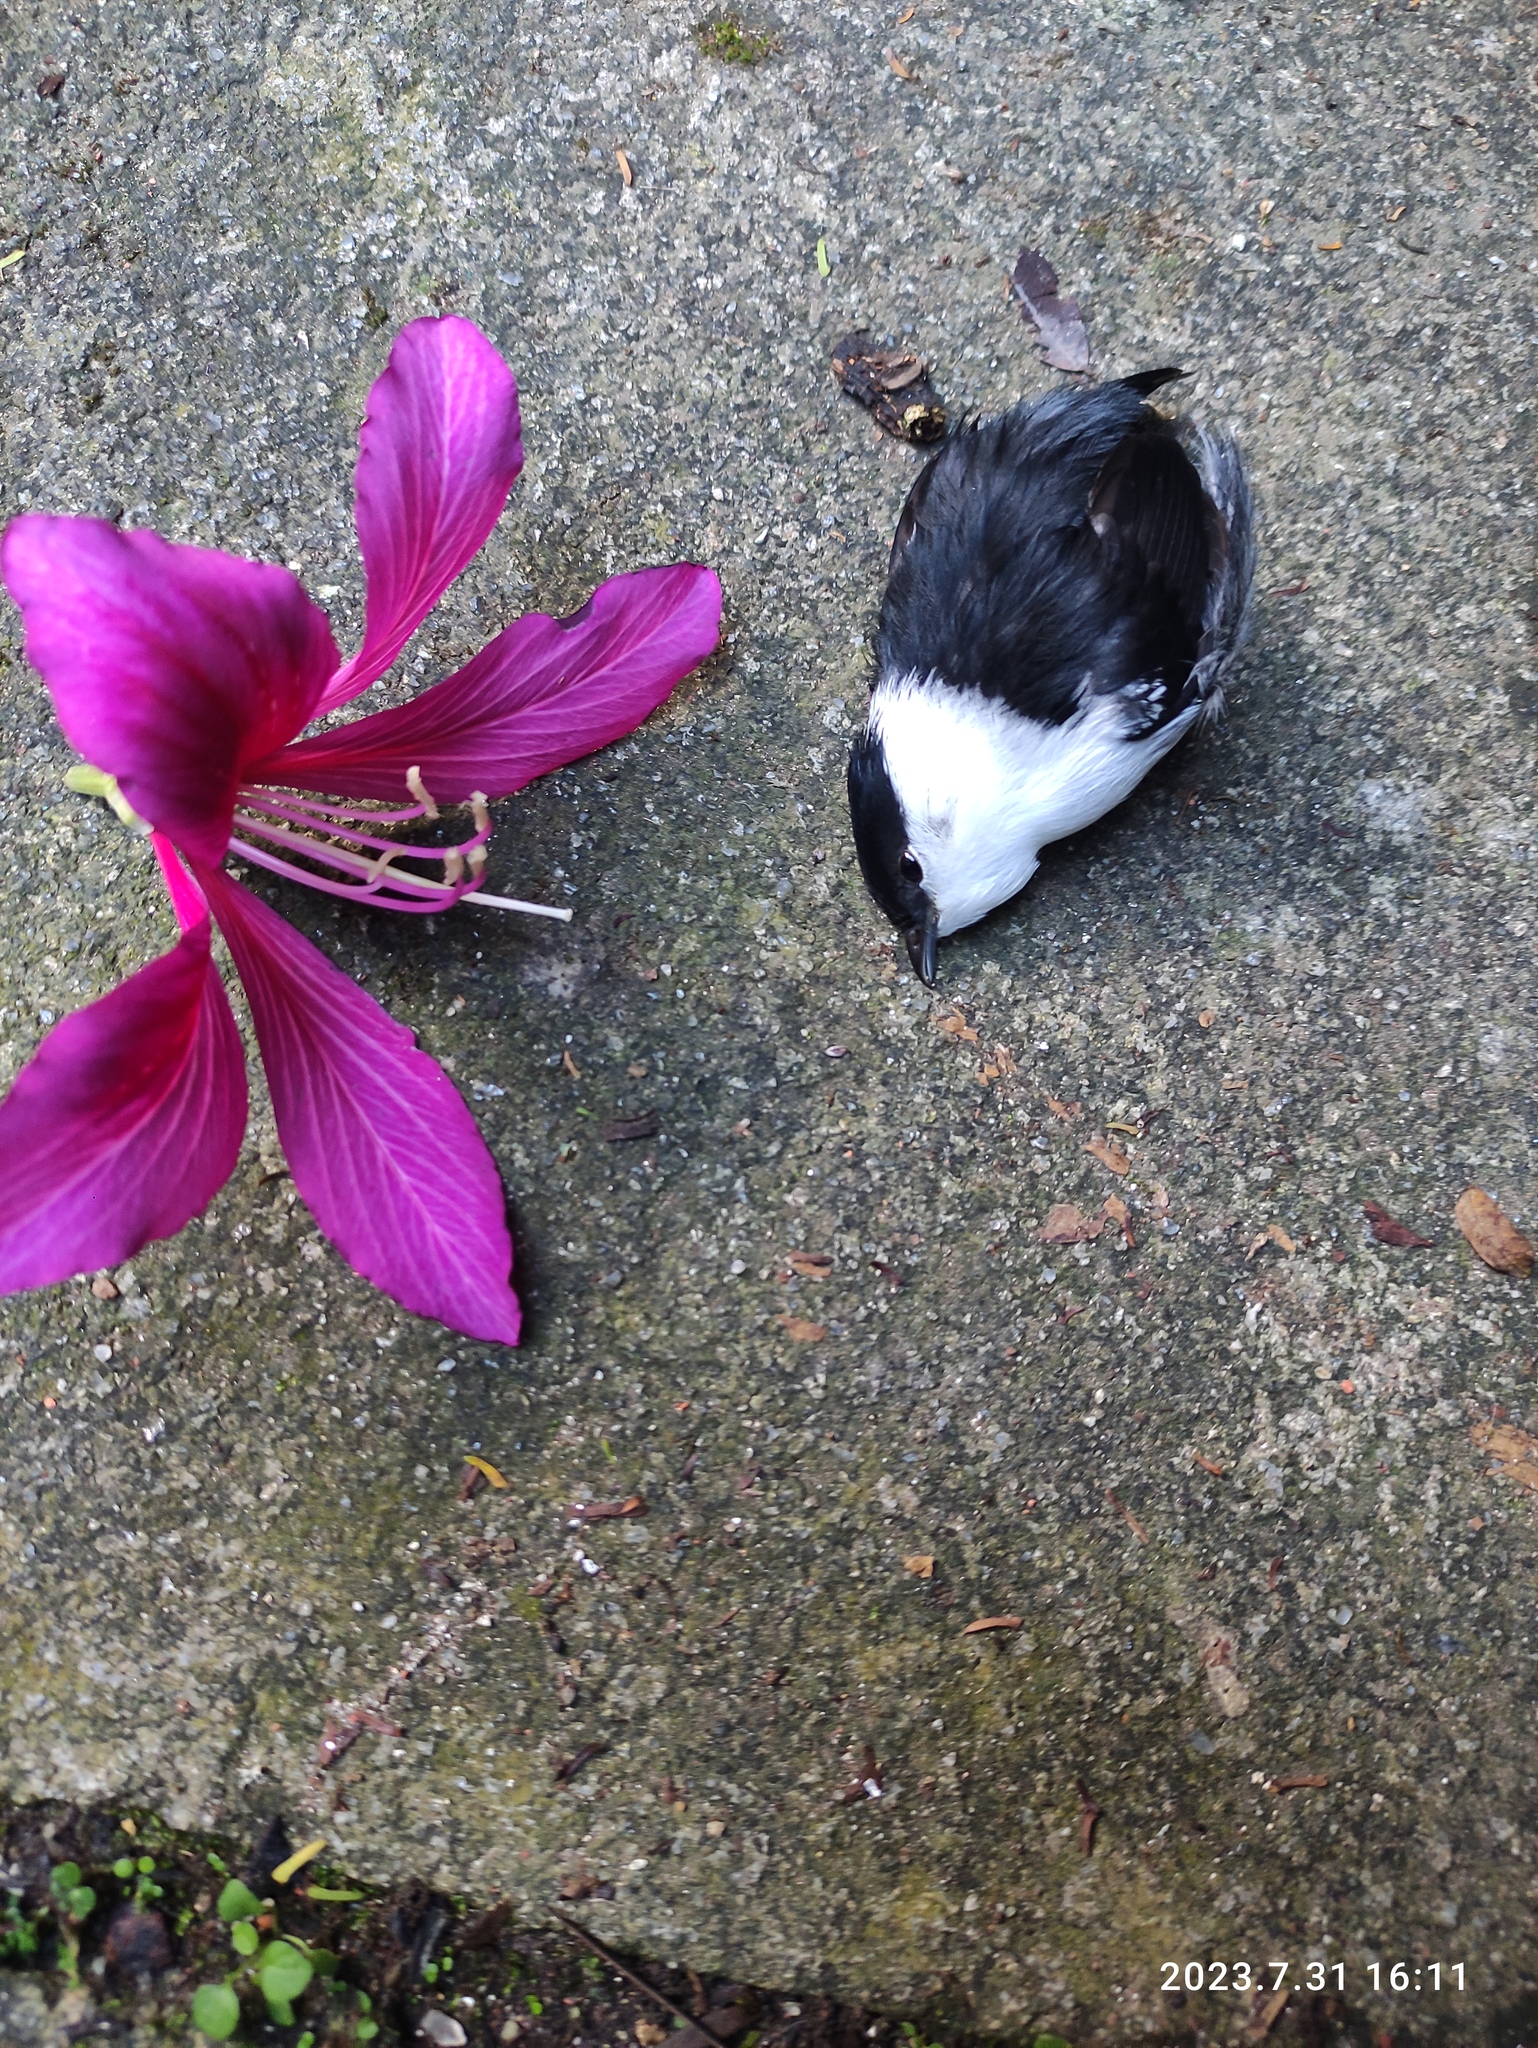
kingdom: Animalia
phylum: Chordata
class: Aves
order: Passeriformes
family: Pipridae
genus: Manacus
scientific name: Manacus manacus
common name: White-bearded manakin
